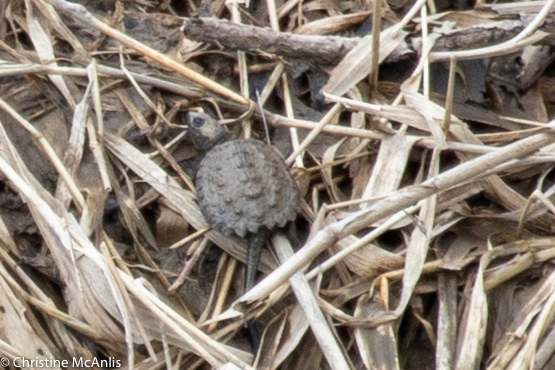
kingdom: Animalia
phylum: Chordata
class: Testudines
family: Chelydridae
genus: Chelydra
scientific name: Chelydra serpentina
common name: Common snapping turtle
